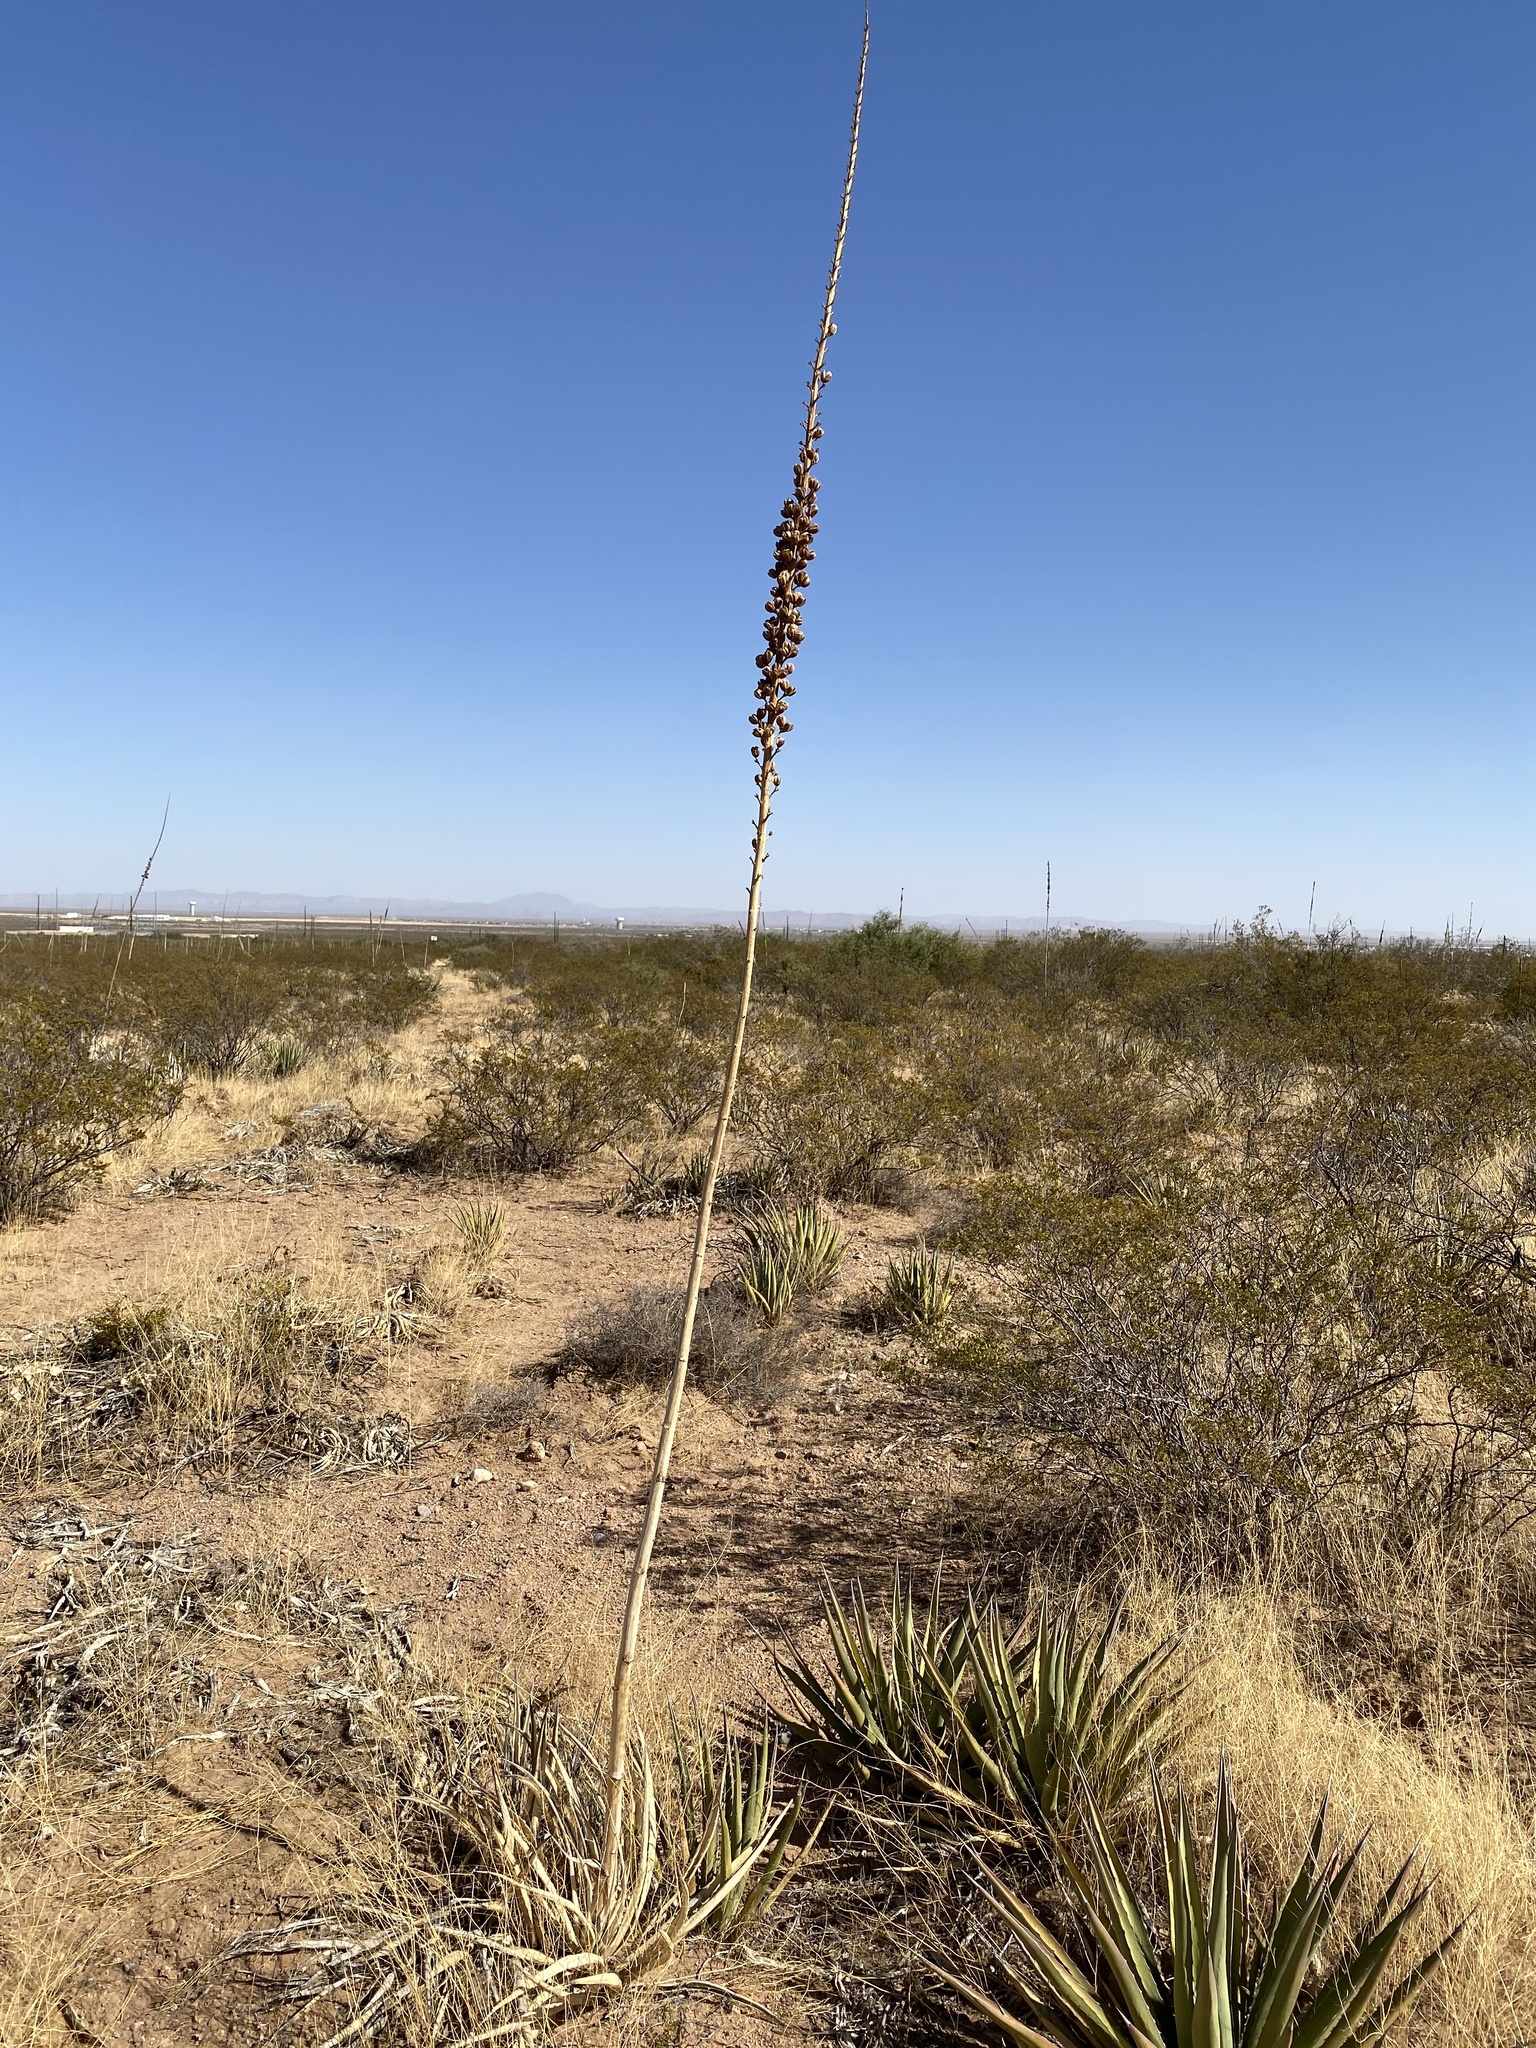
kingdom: Plantae
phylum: Tracheophyta
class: Liliopsida
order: Asparagales
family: Asparagaceae
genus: Agave
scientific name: Agave lechuguilla
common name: Lecheguilla agave
